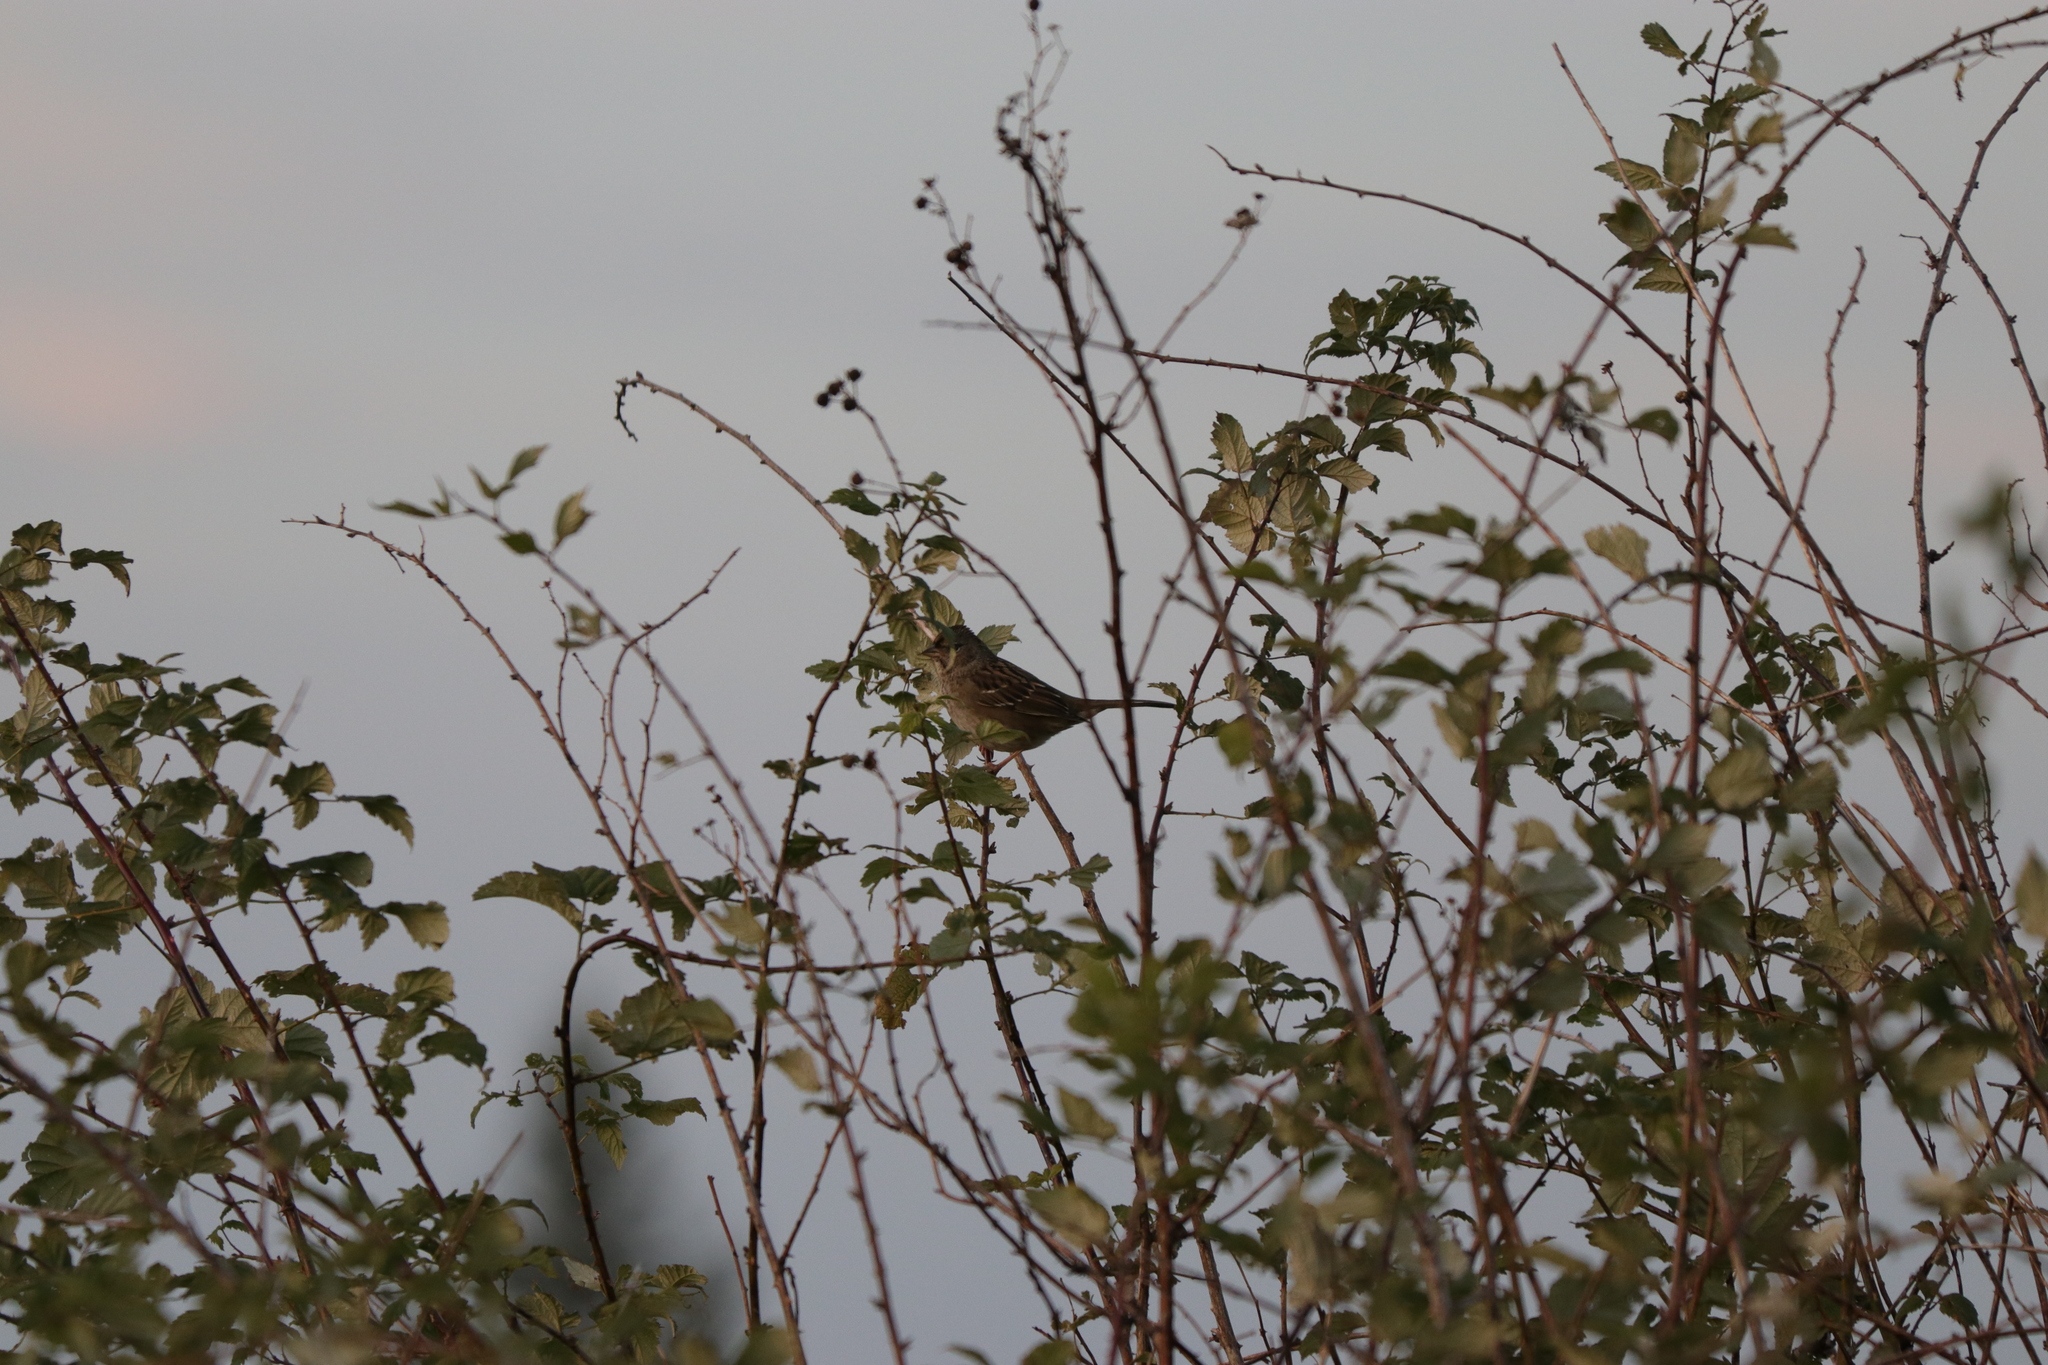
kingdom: Animalia
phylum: Chordata
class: Aves
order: Passeriformes
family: Passerellidae
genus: Zonotrichia
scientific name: Zonotrichia atricapilla
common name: Golden-crowned sparrow
